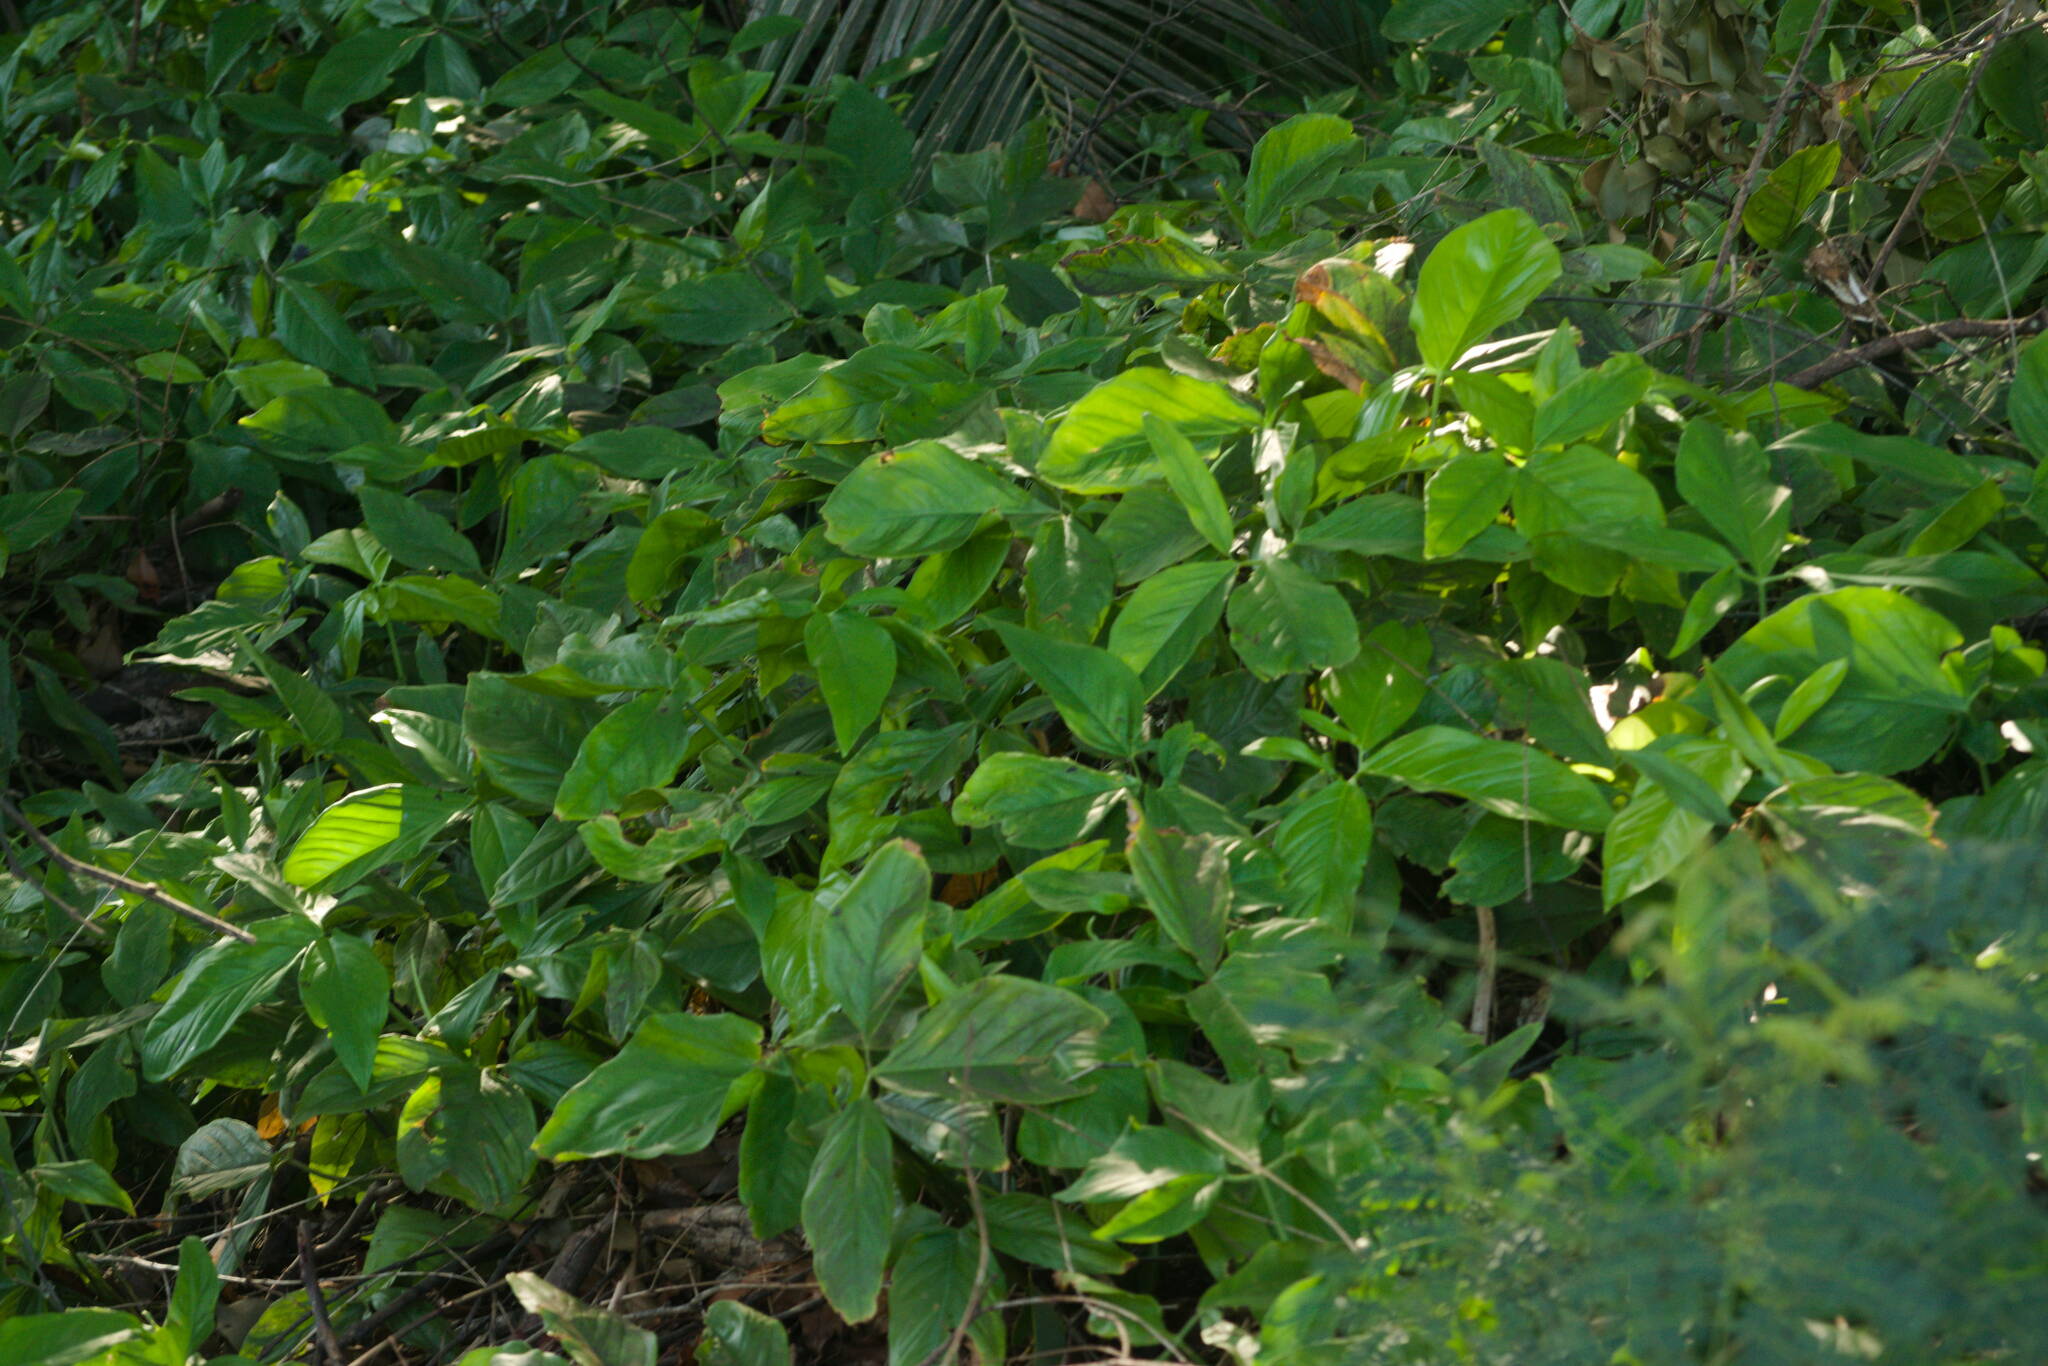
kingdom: Plantae
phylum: Tracheophyta
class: Liliopsida
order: Alismatales
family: Araceae
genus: Syngonium
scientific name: Syngonium podophyllum
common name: American evergreen
